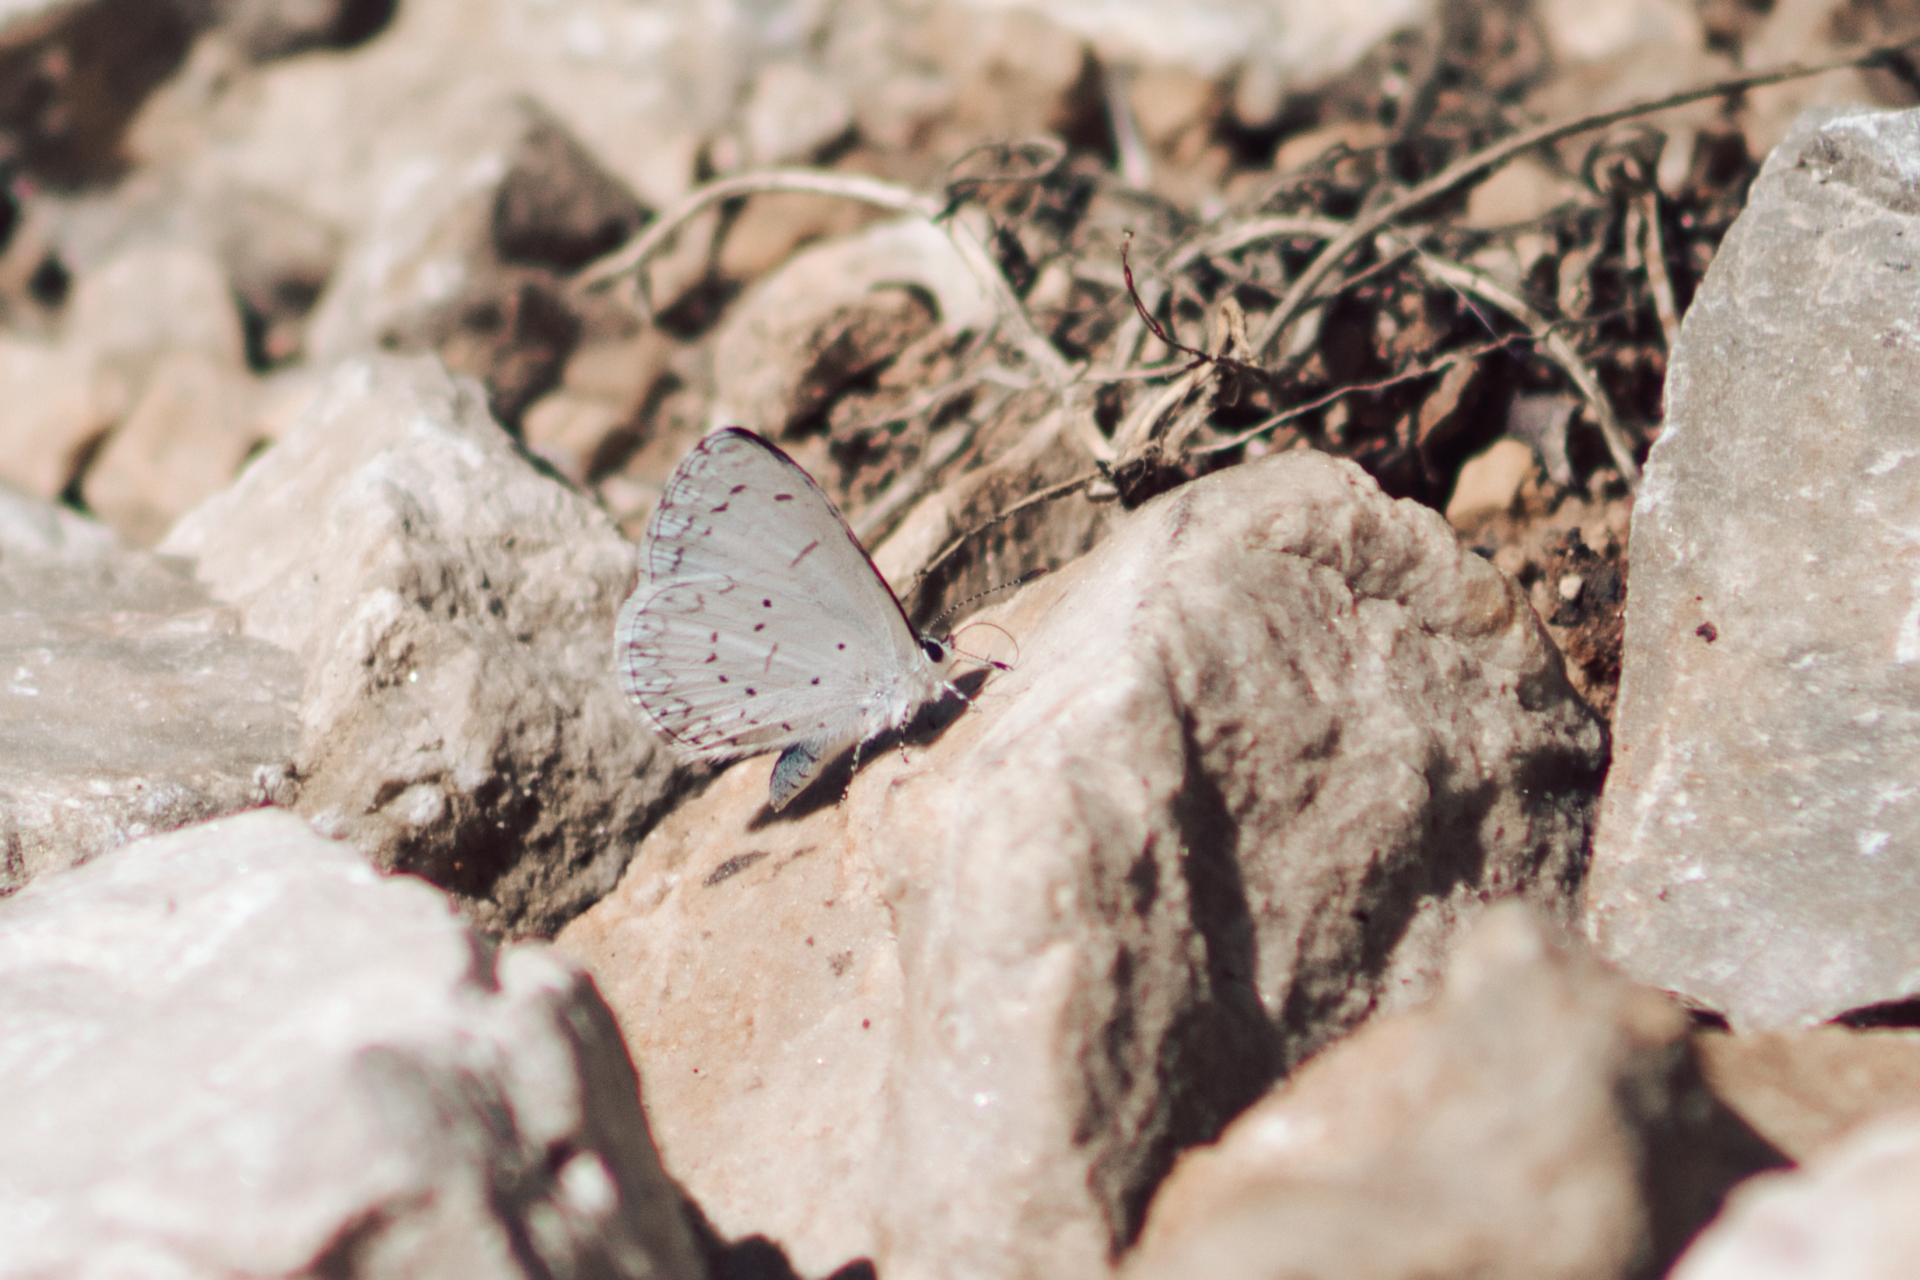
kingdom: Animalia
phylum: Arthropoda
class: Insecta
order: Lepidoptera
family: Lycaenidae
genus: Celastrina
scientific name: Celastrina ladon
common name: Spring azure
